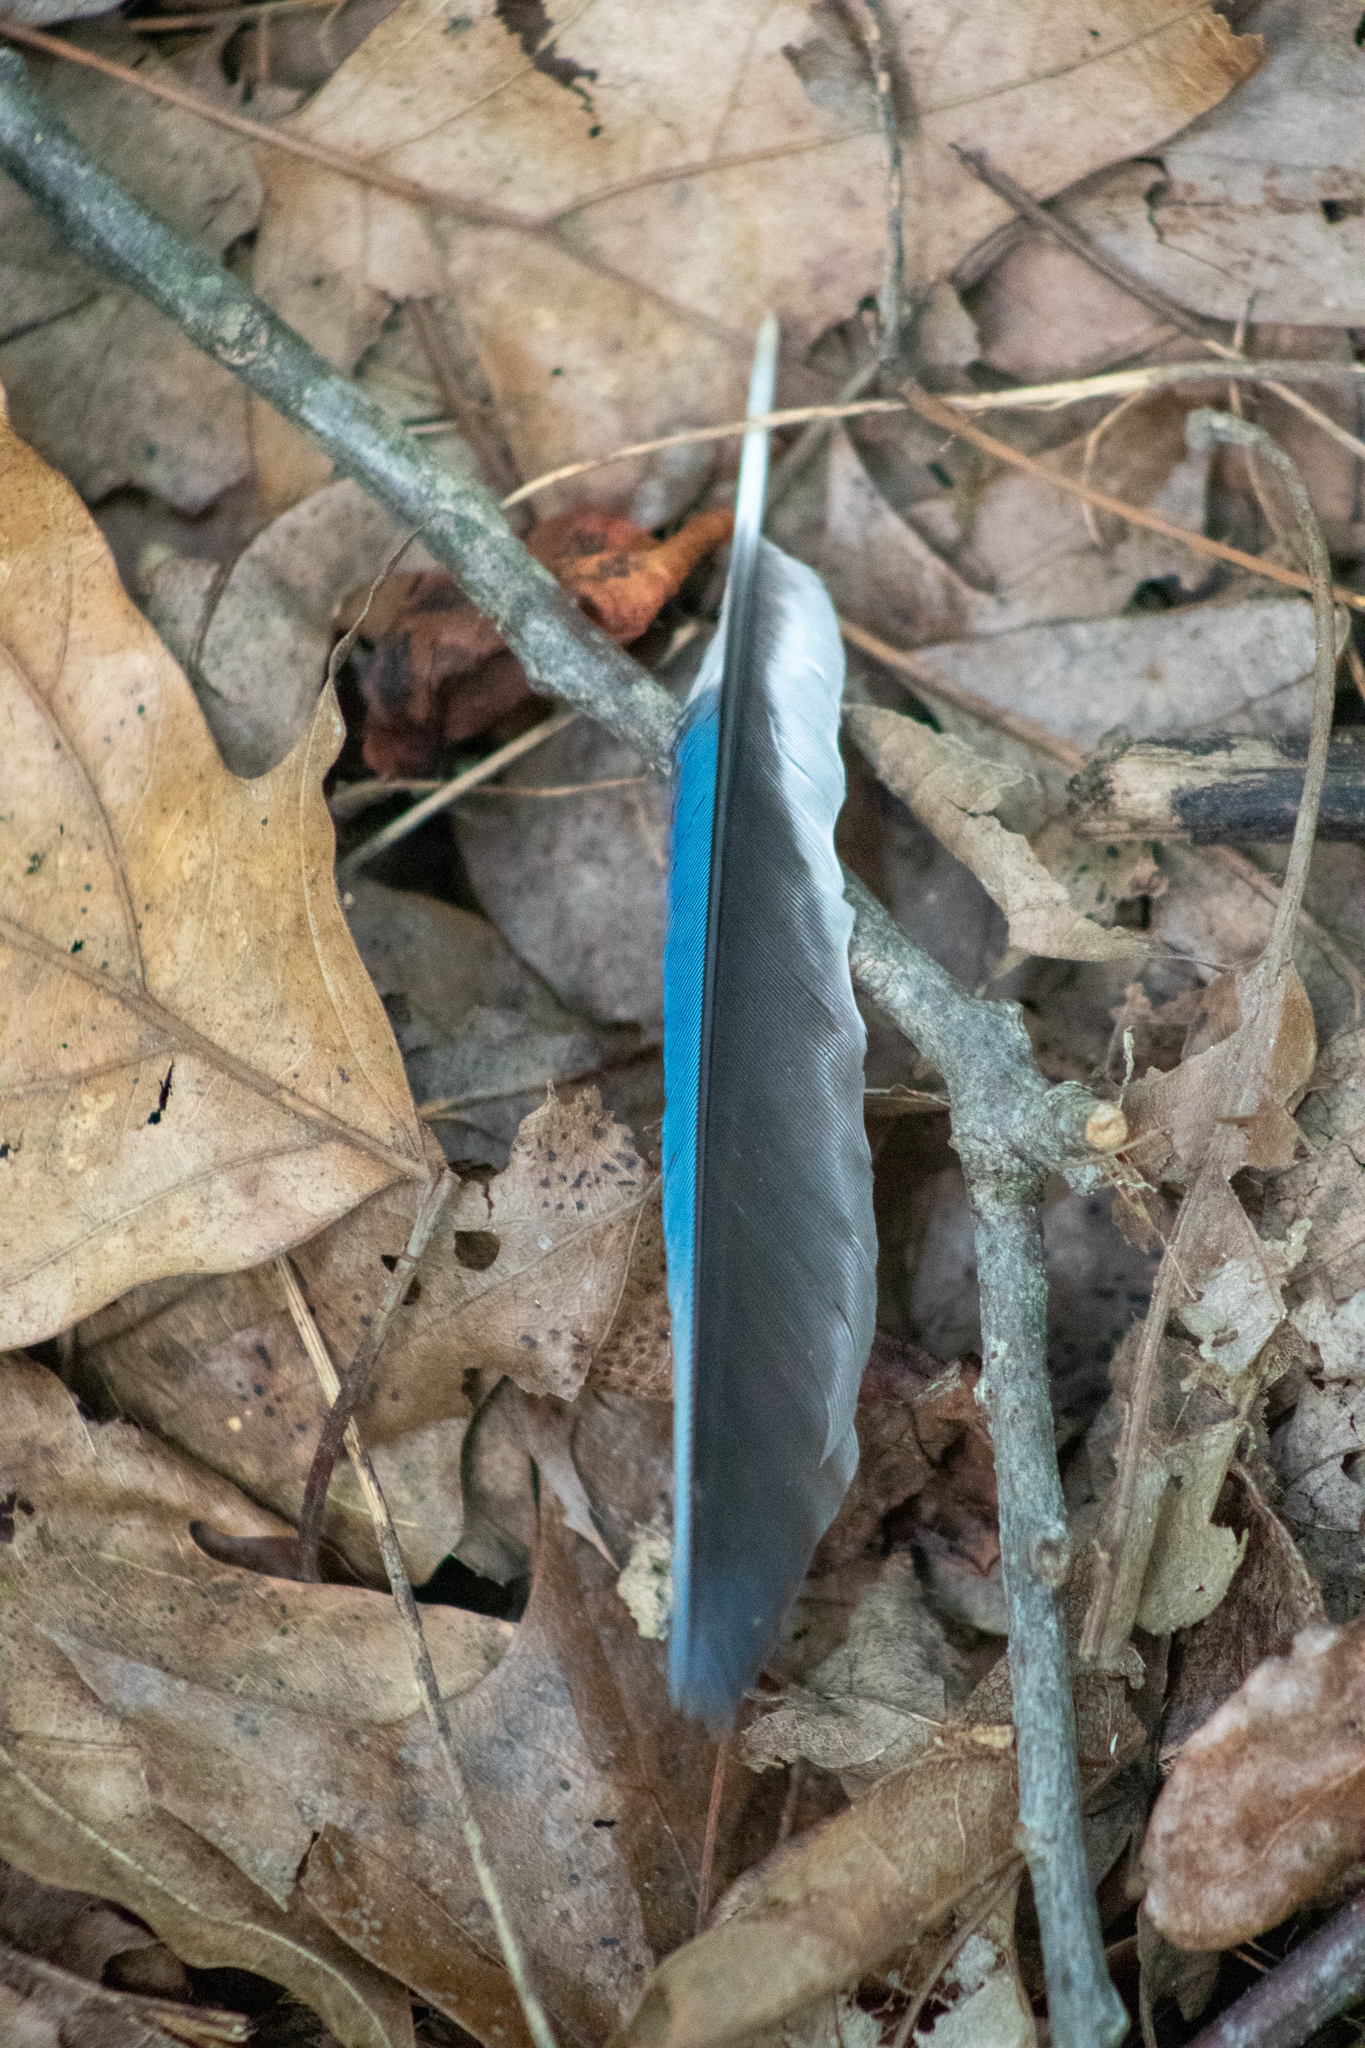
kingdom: Animalia
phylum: Chordata
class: Aves
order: Passeriformes
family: Corvidae
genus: Cyanocitta
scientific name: Cyanocitta cristata
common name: Blue jay
